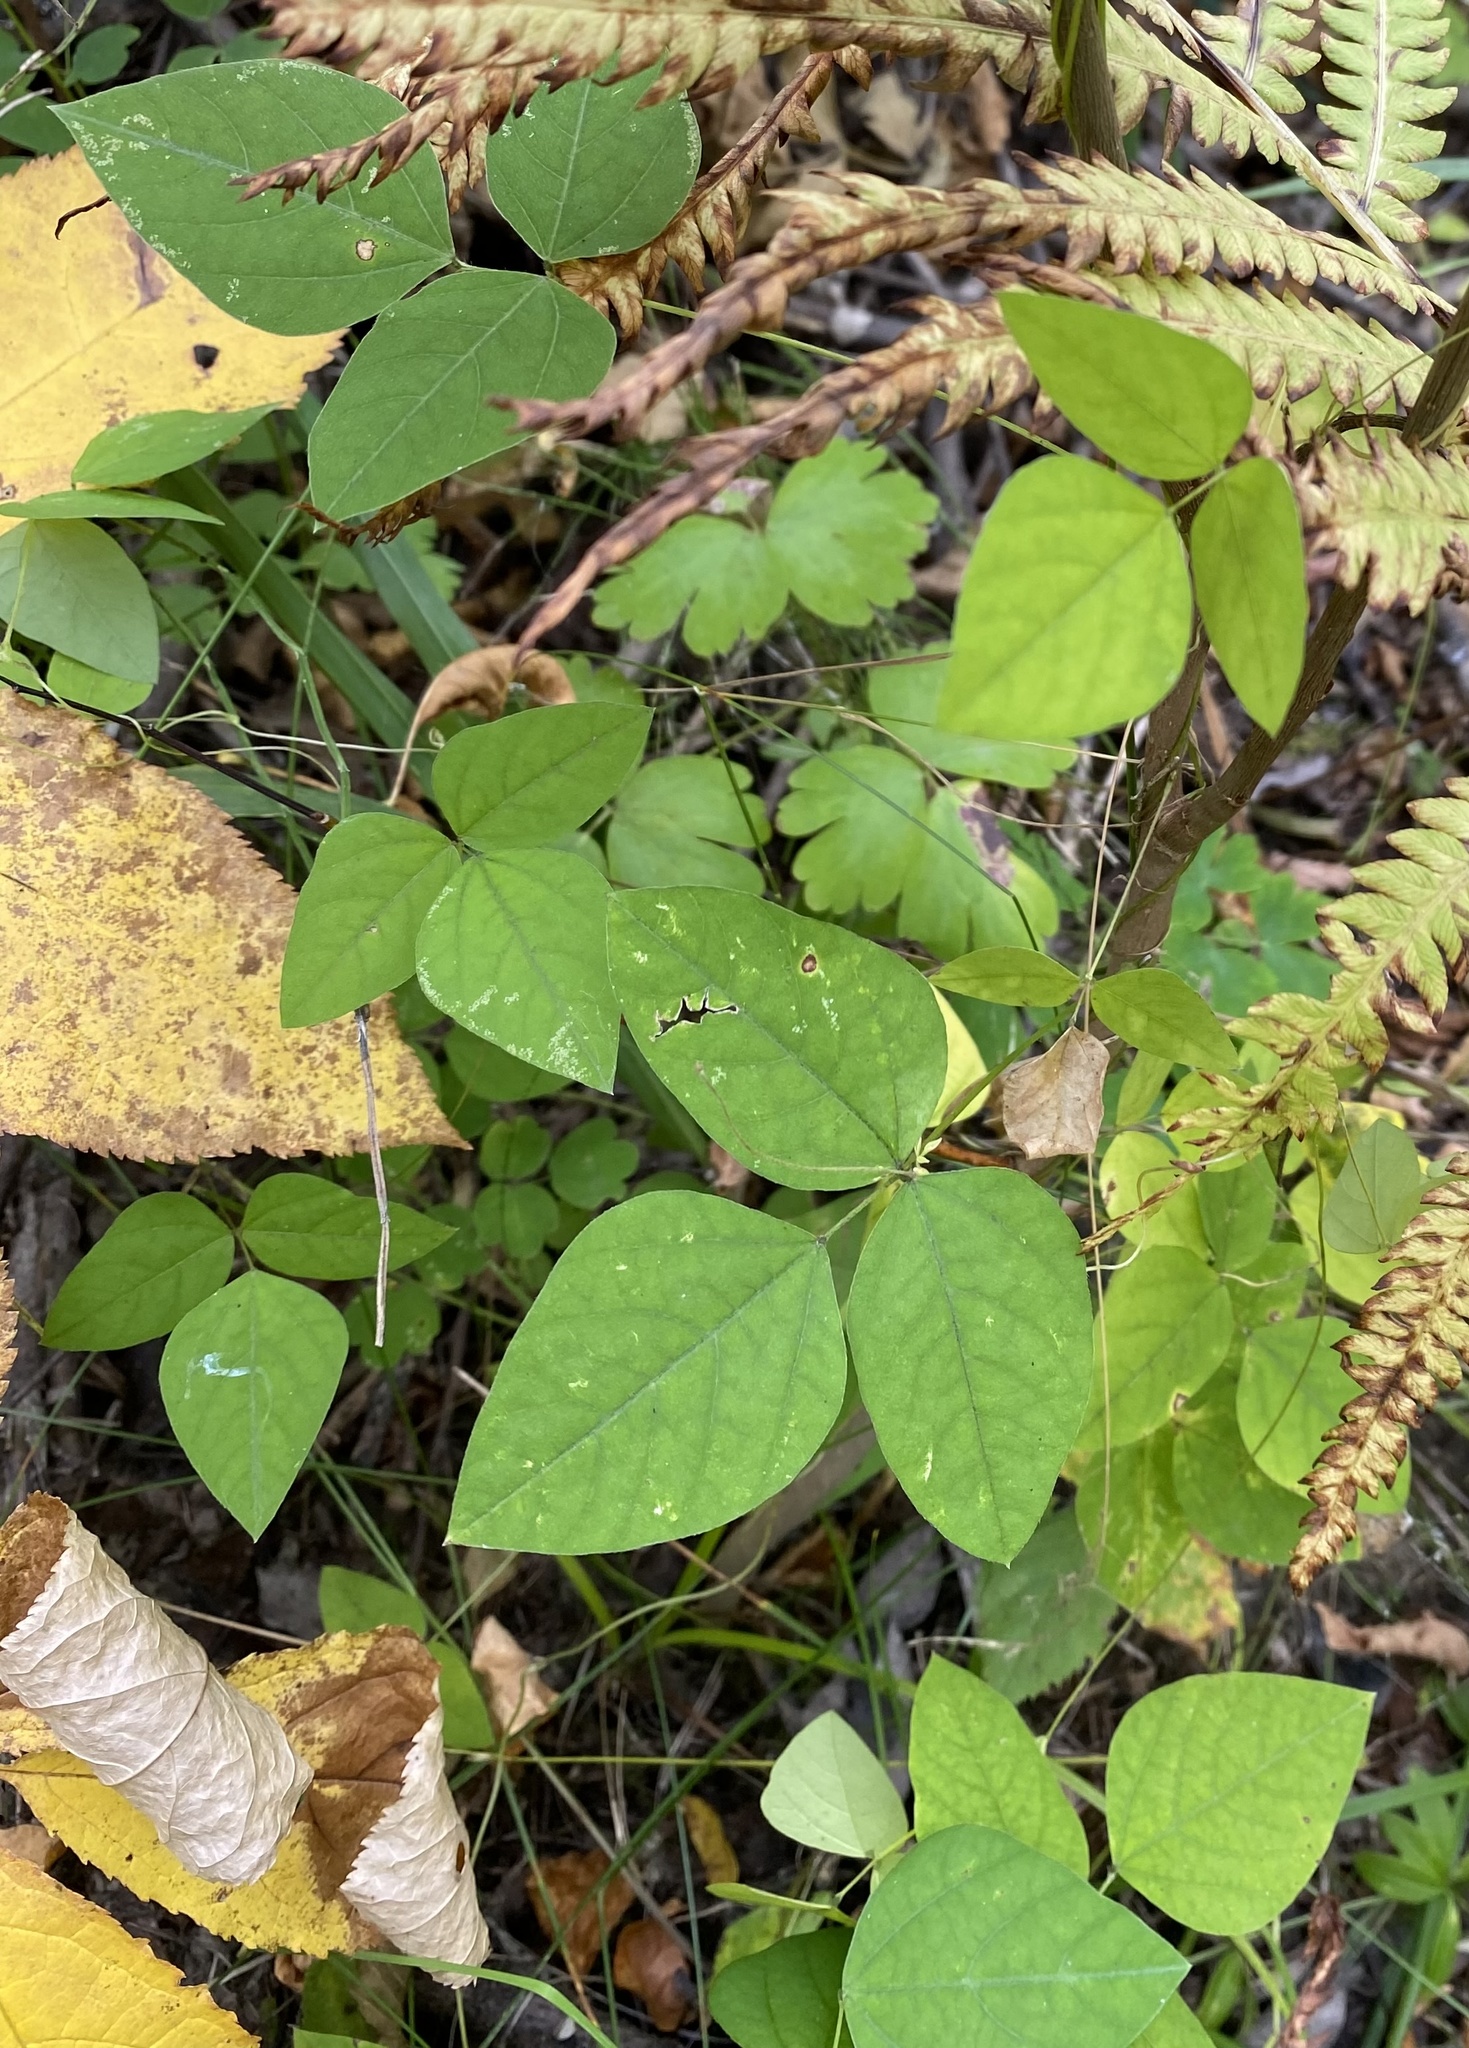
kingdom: Plantae
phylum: Tracheophyta
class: Magnoliopsida
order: Fabales
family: Fabaceae
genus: Amphicarpaea
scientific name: Amphicarpaea bracteata
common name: American hog peanut
